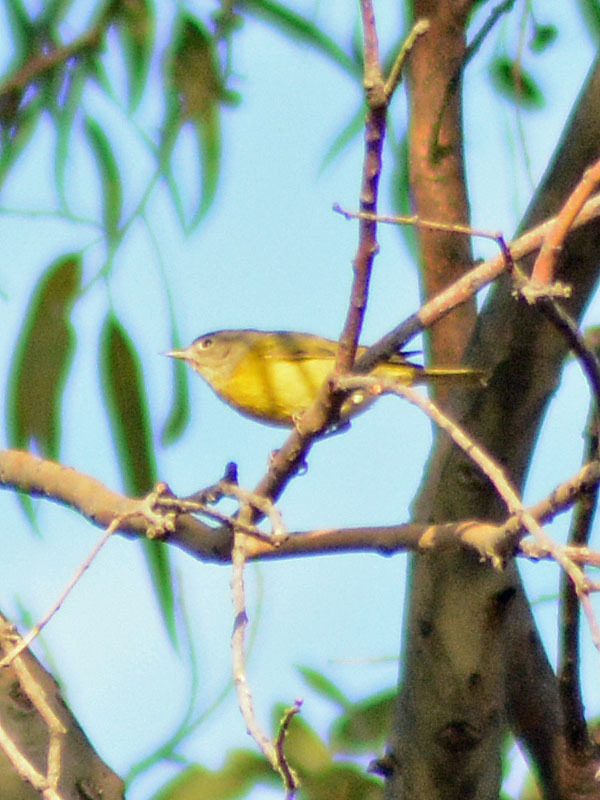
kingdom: Animalia
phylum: Chordata
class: Aves
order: Passeriformes
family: Parulidae
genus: Leiothlypis
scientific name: Leiothlypis ruficapilla
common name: Nashville warbler
